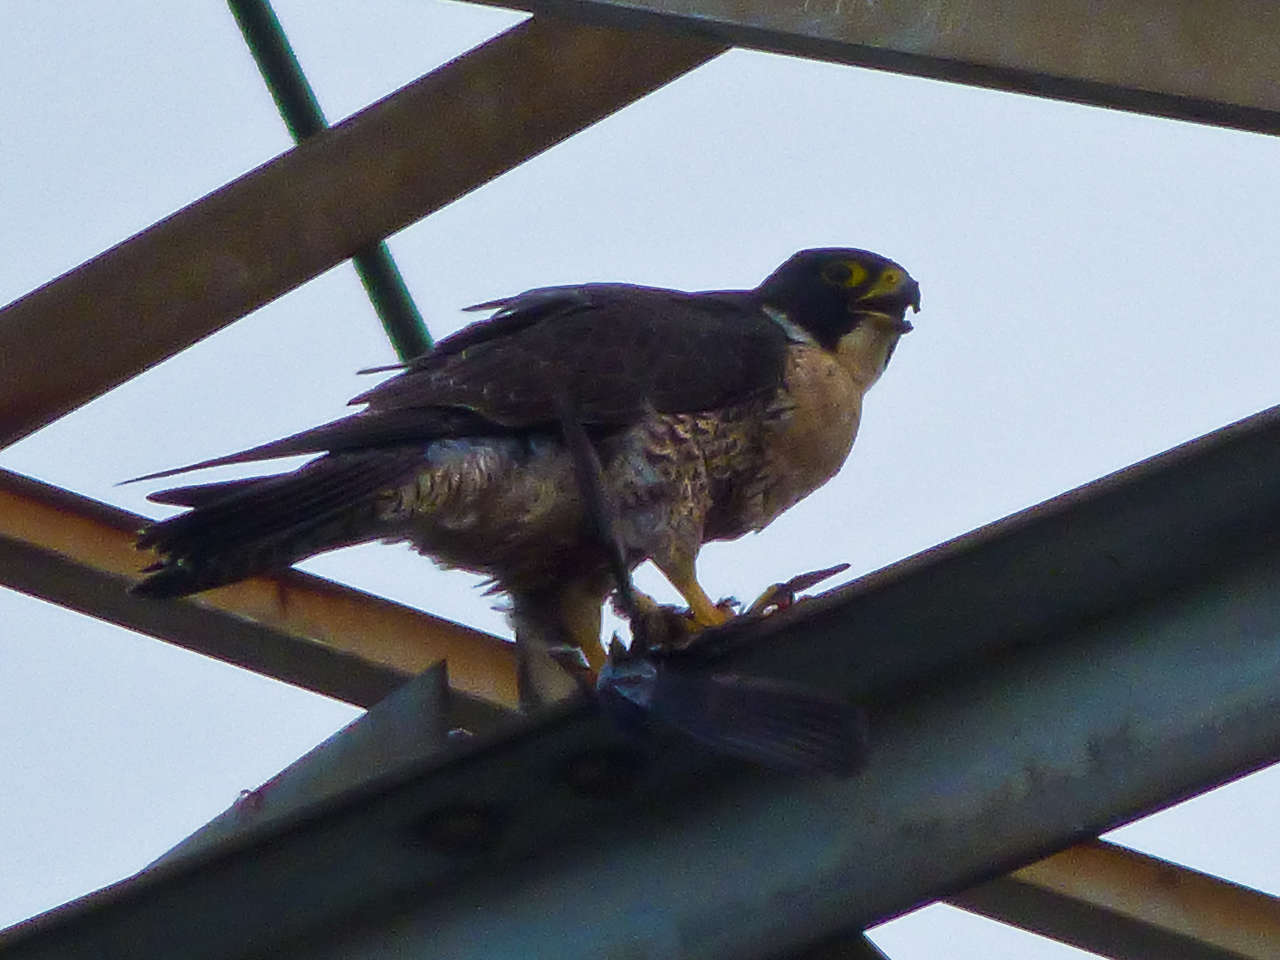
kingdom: Animalia
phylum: Chordata
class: Aves
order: Falconiformes
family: Falconidae
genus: Falco
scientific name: Falco peregrinus
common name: Peregrine falcon
